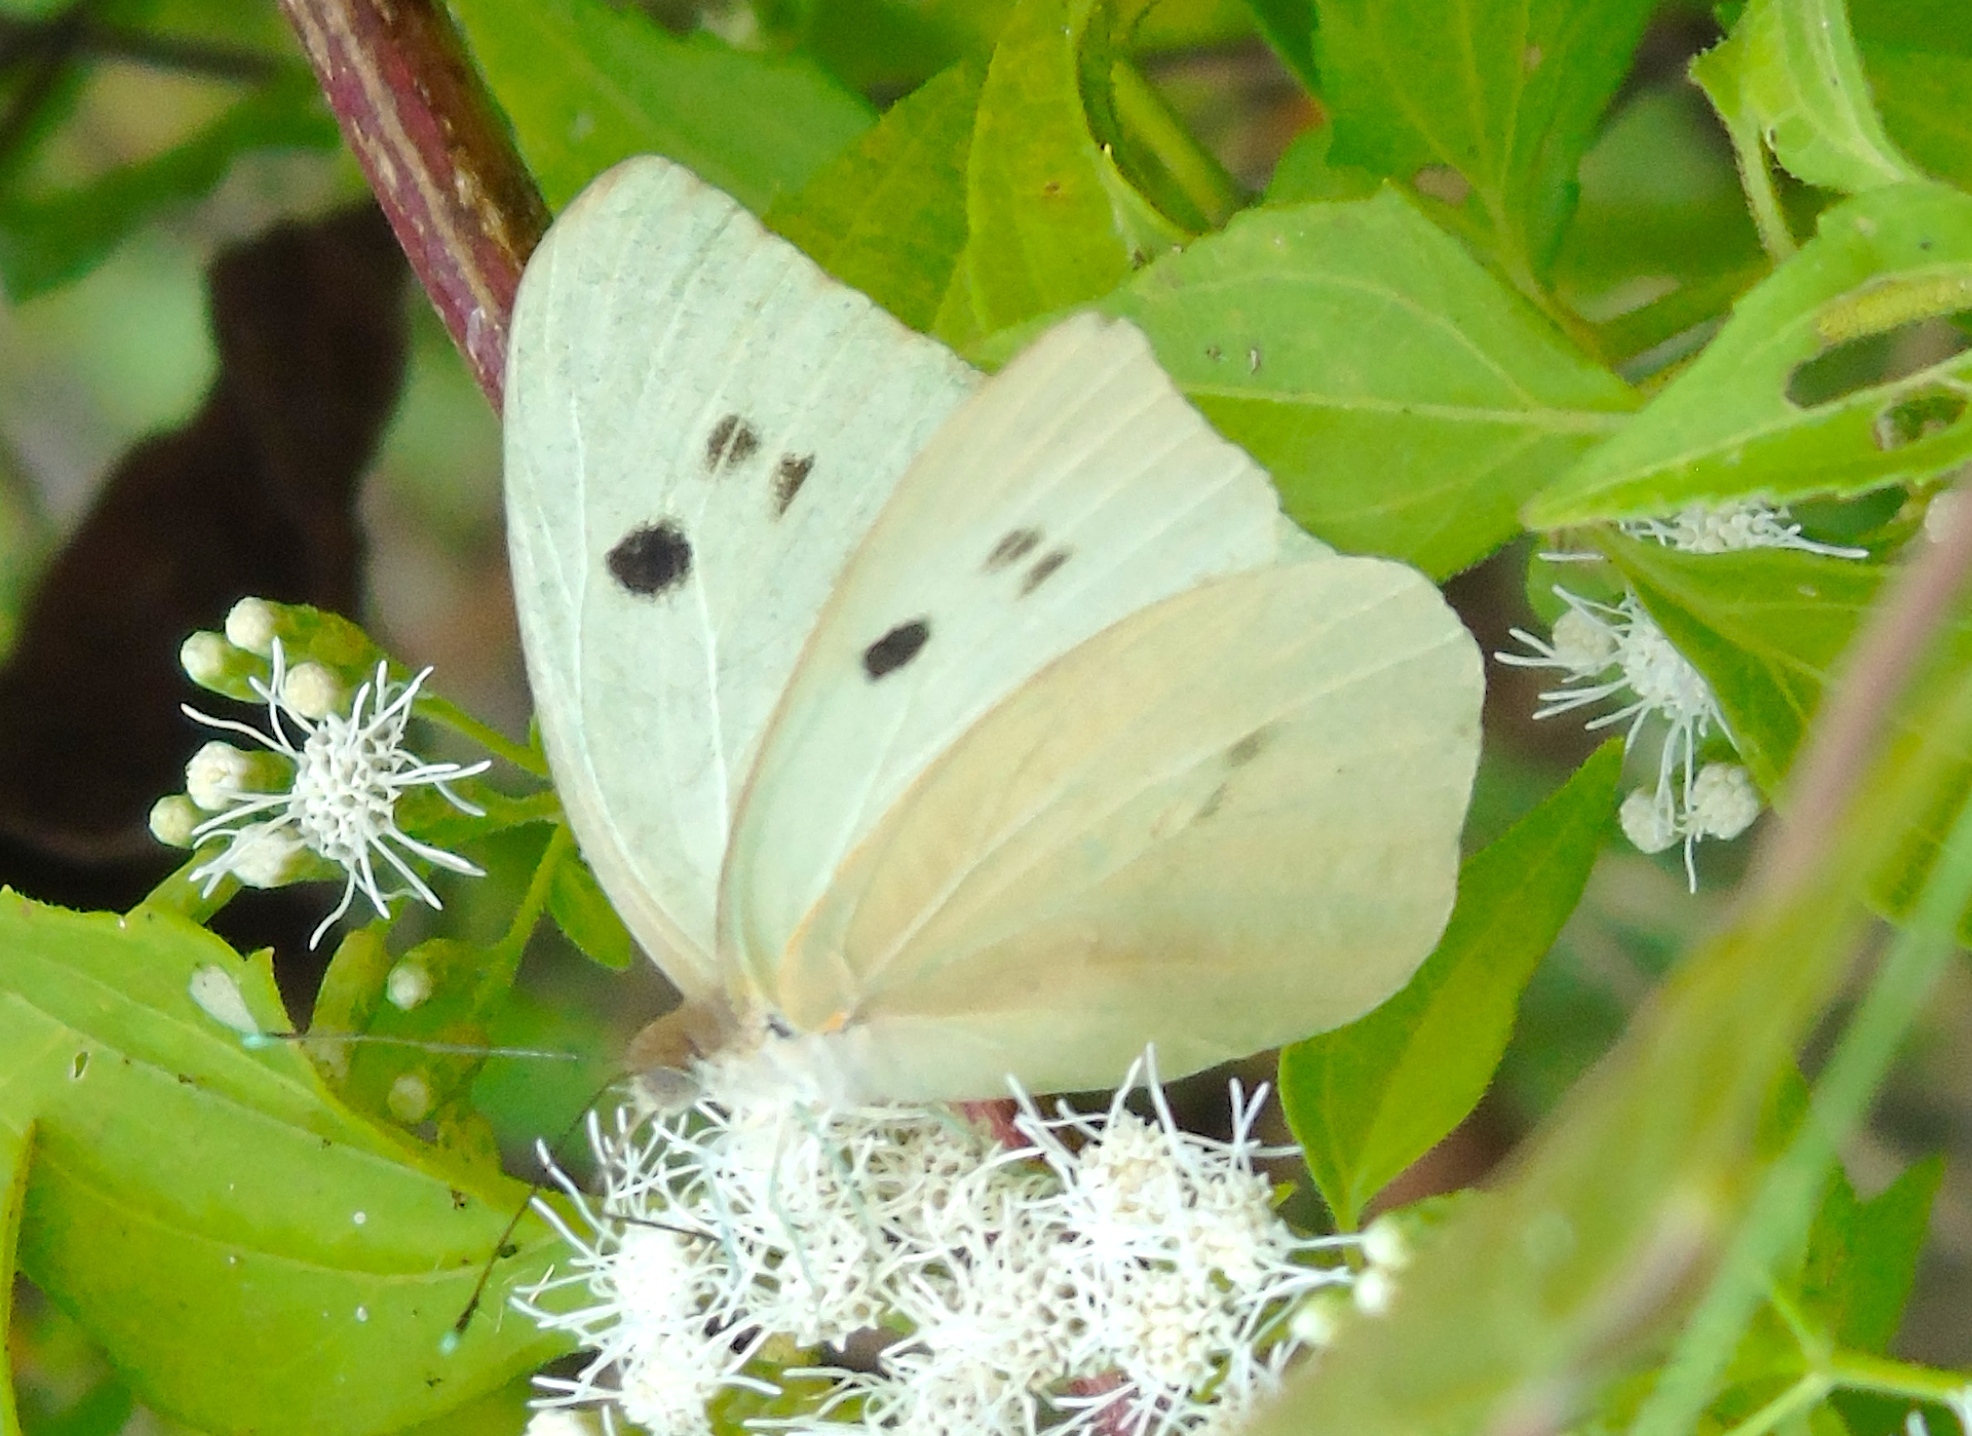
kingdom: Animalia
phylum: Arthropoda
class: Insecta
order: Lepidoptera
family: Pieridae
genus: Ganyra
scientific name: Ganyra josephina
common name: Giant white
